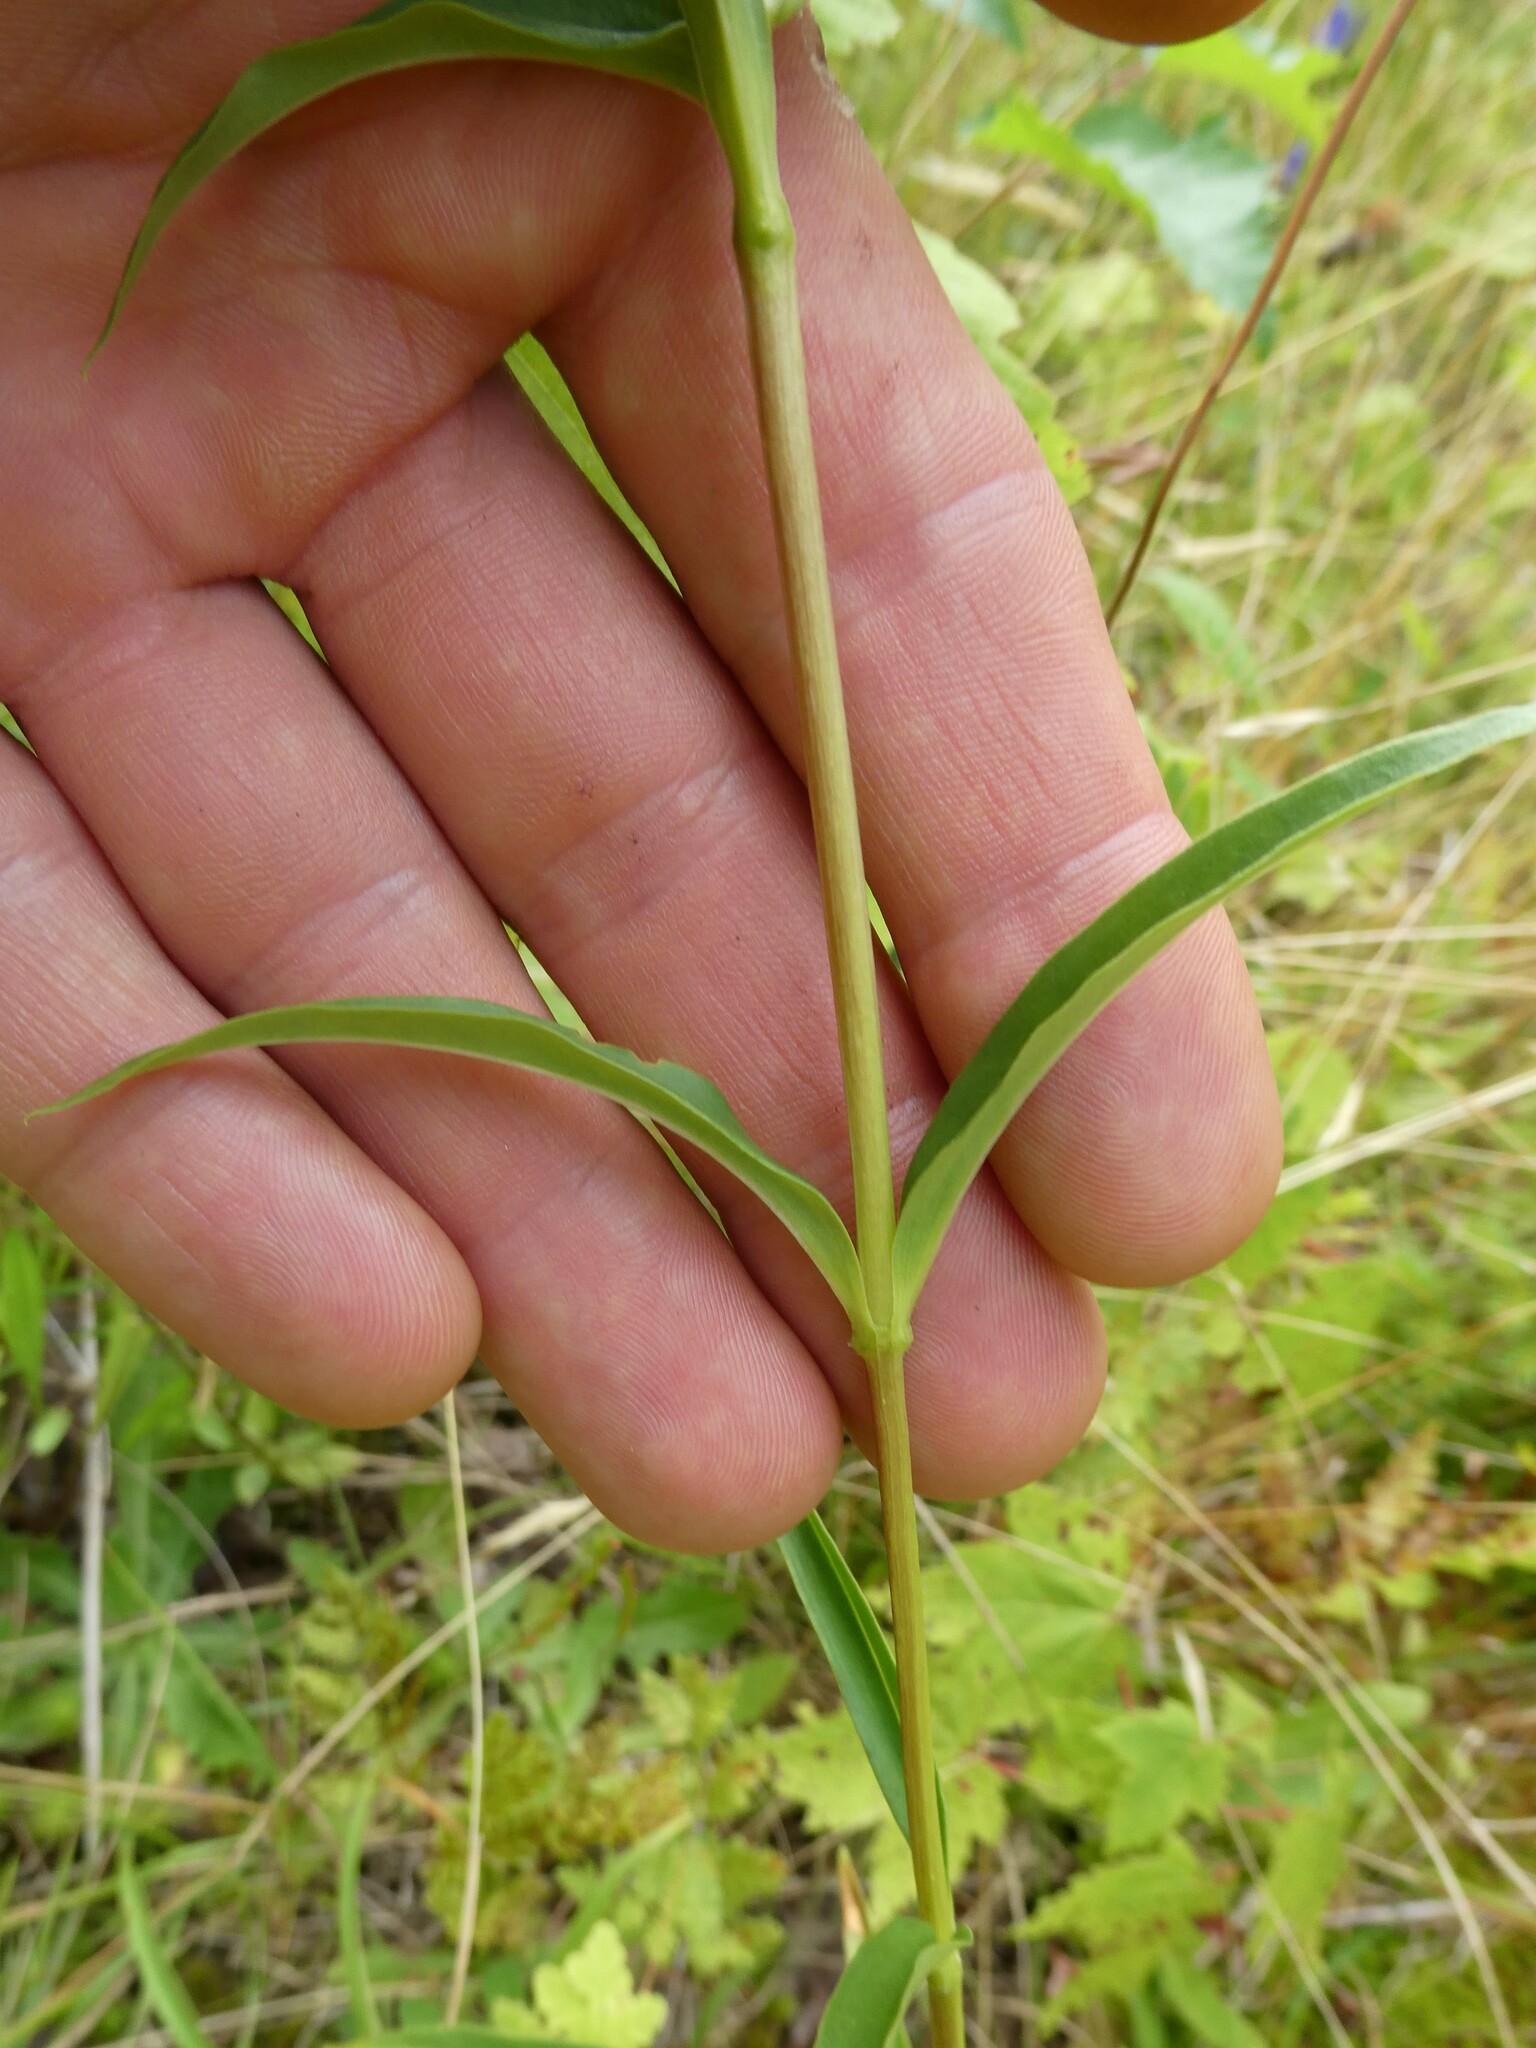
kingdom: Plantae
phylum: Tracheophyta
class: Magnoliopsida
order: Gentianales
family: Gentianaceae
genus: Gentiana
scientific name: Gentiana linearis
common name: Bastard gentian
